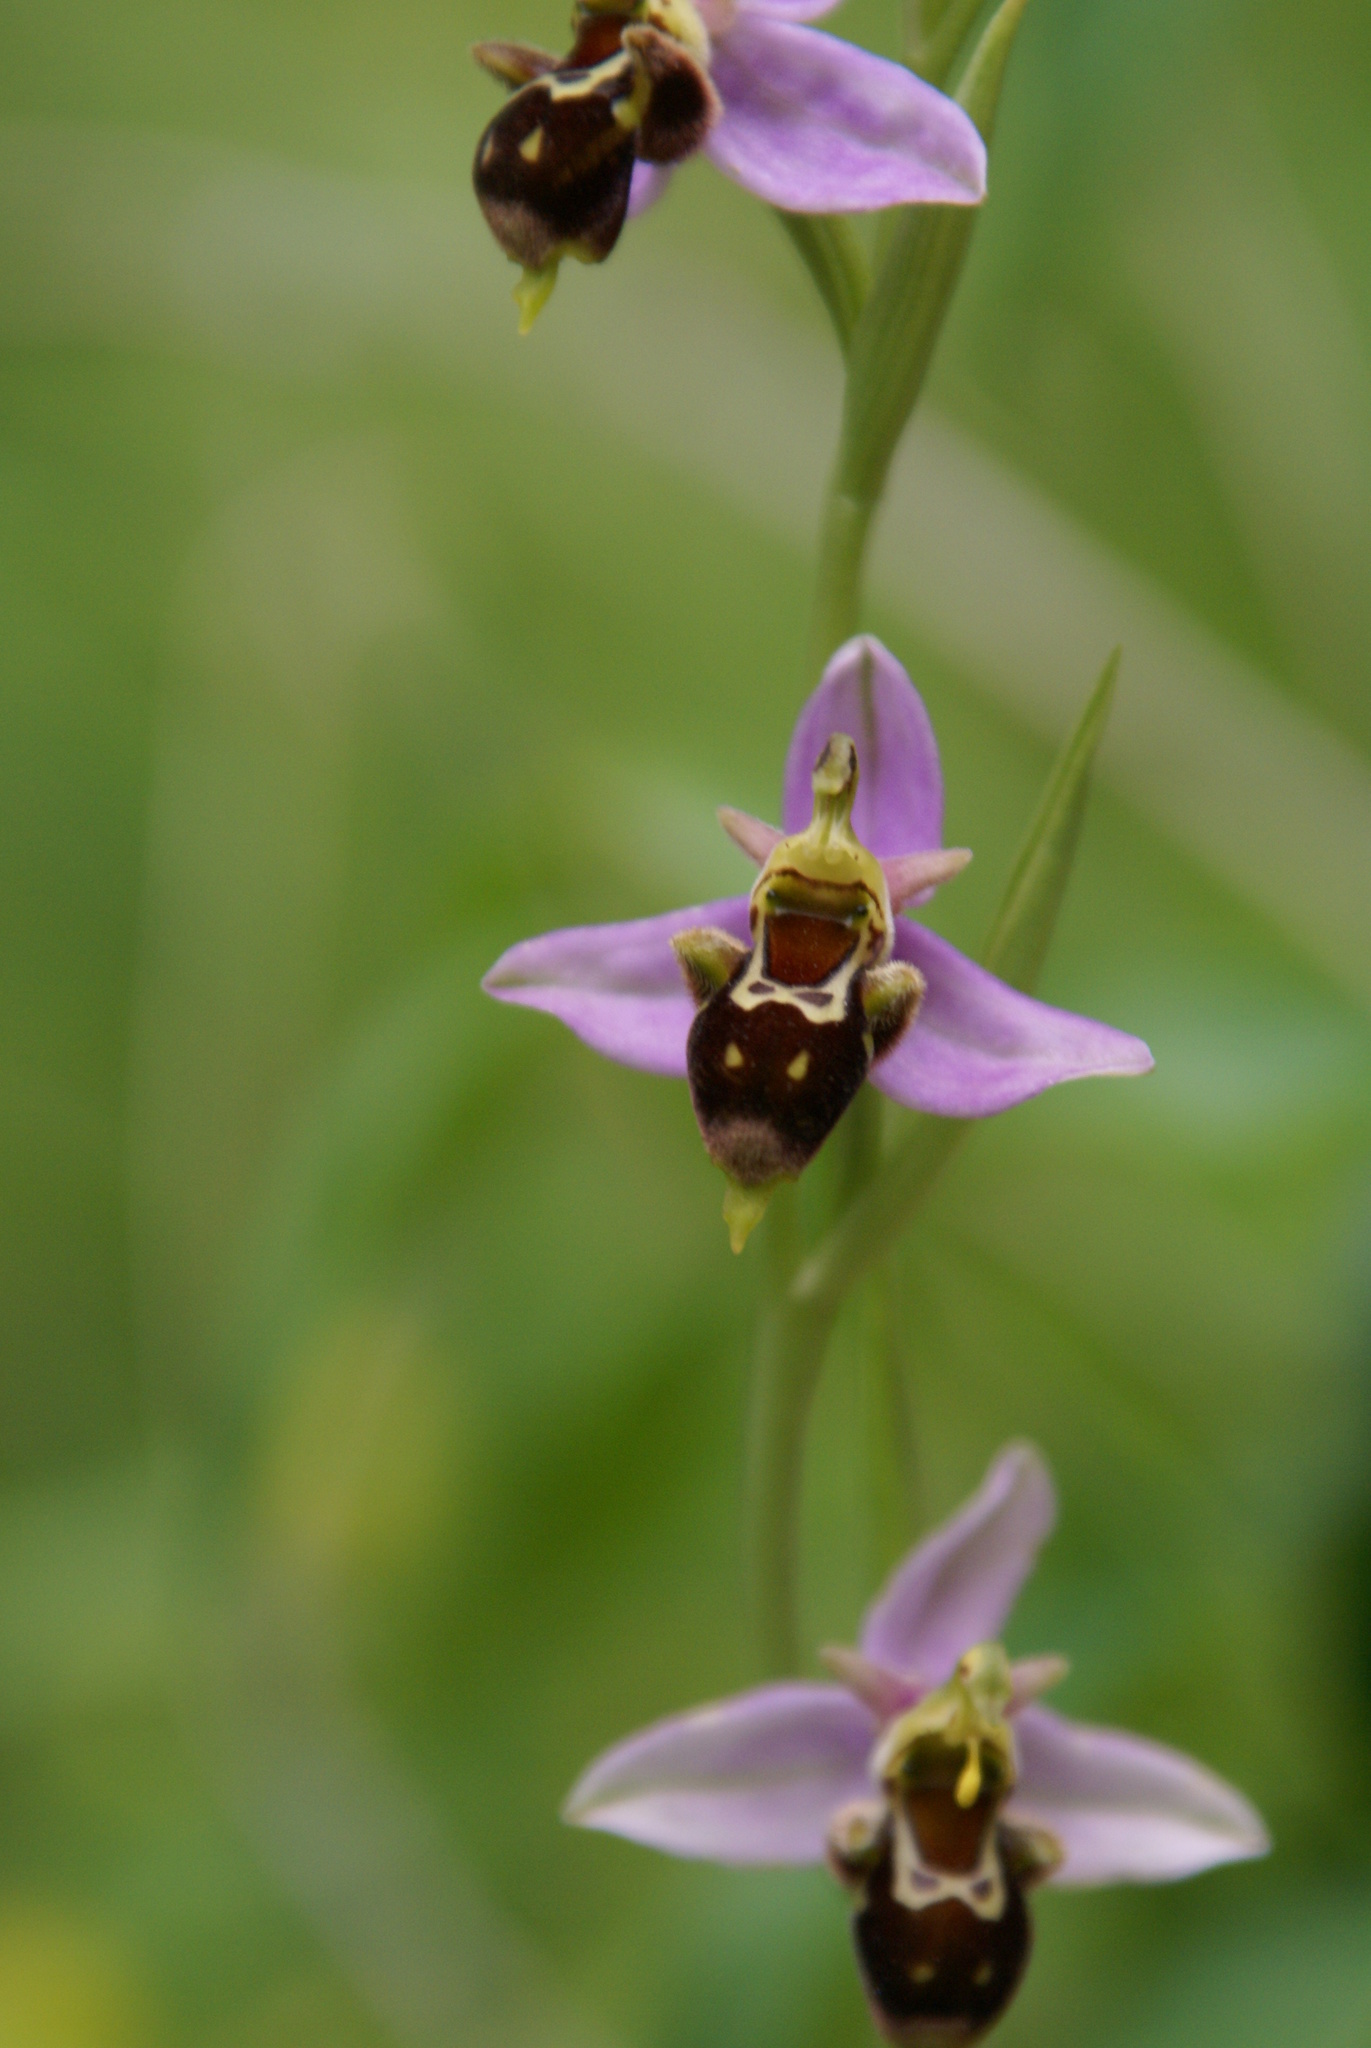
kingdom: Plantae
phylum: Tracheophyta
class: Liliopsida
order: Asparagales
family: Orchidaceae
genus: Ophrys
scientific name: Ophrys scolopax
